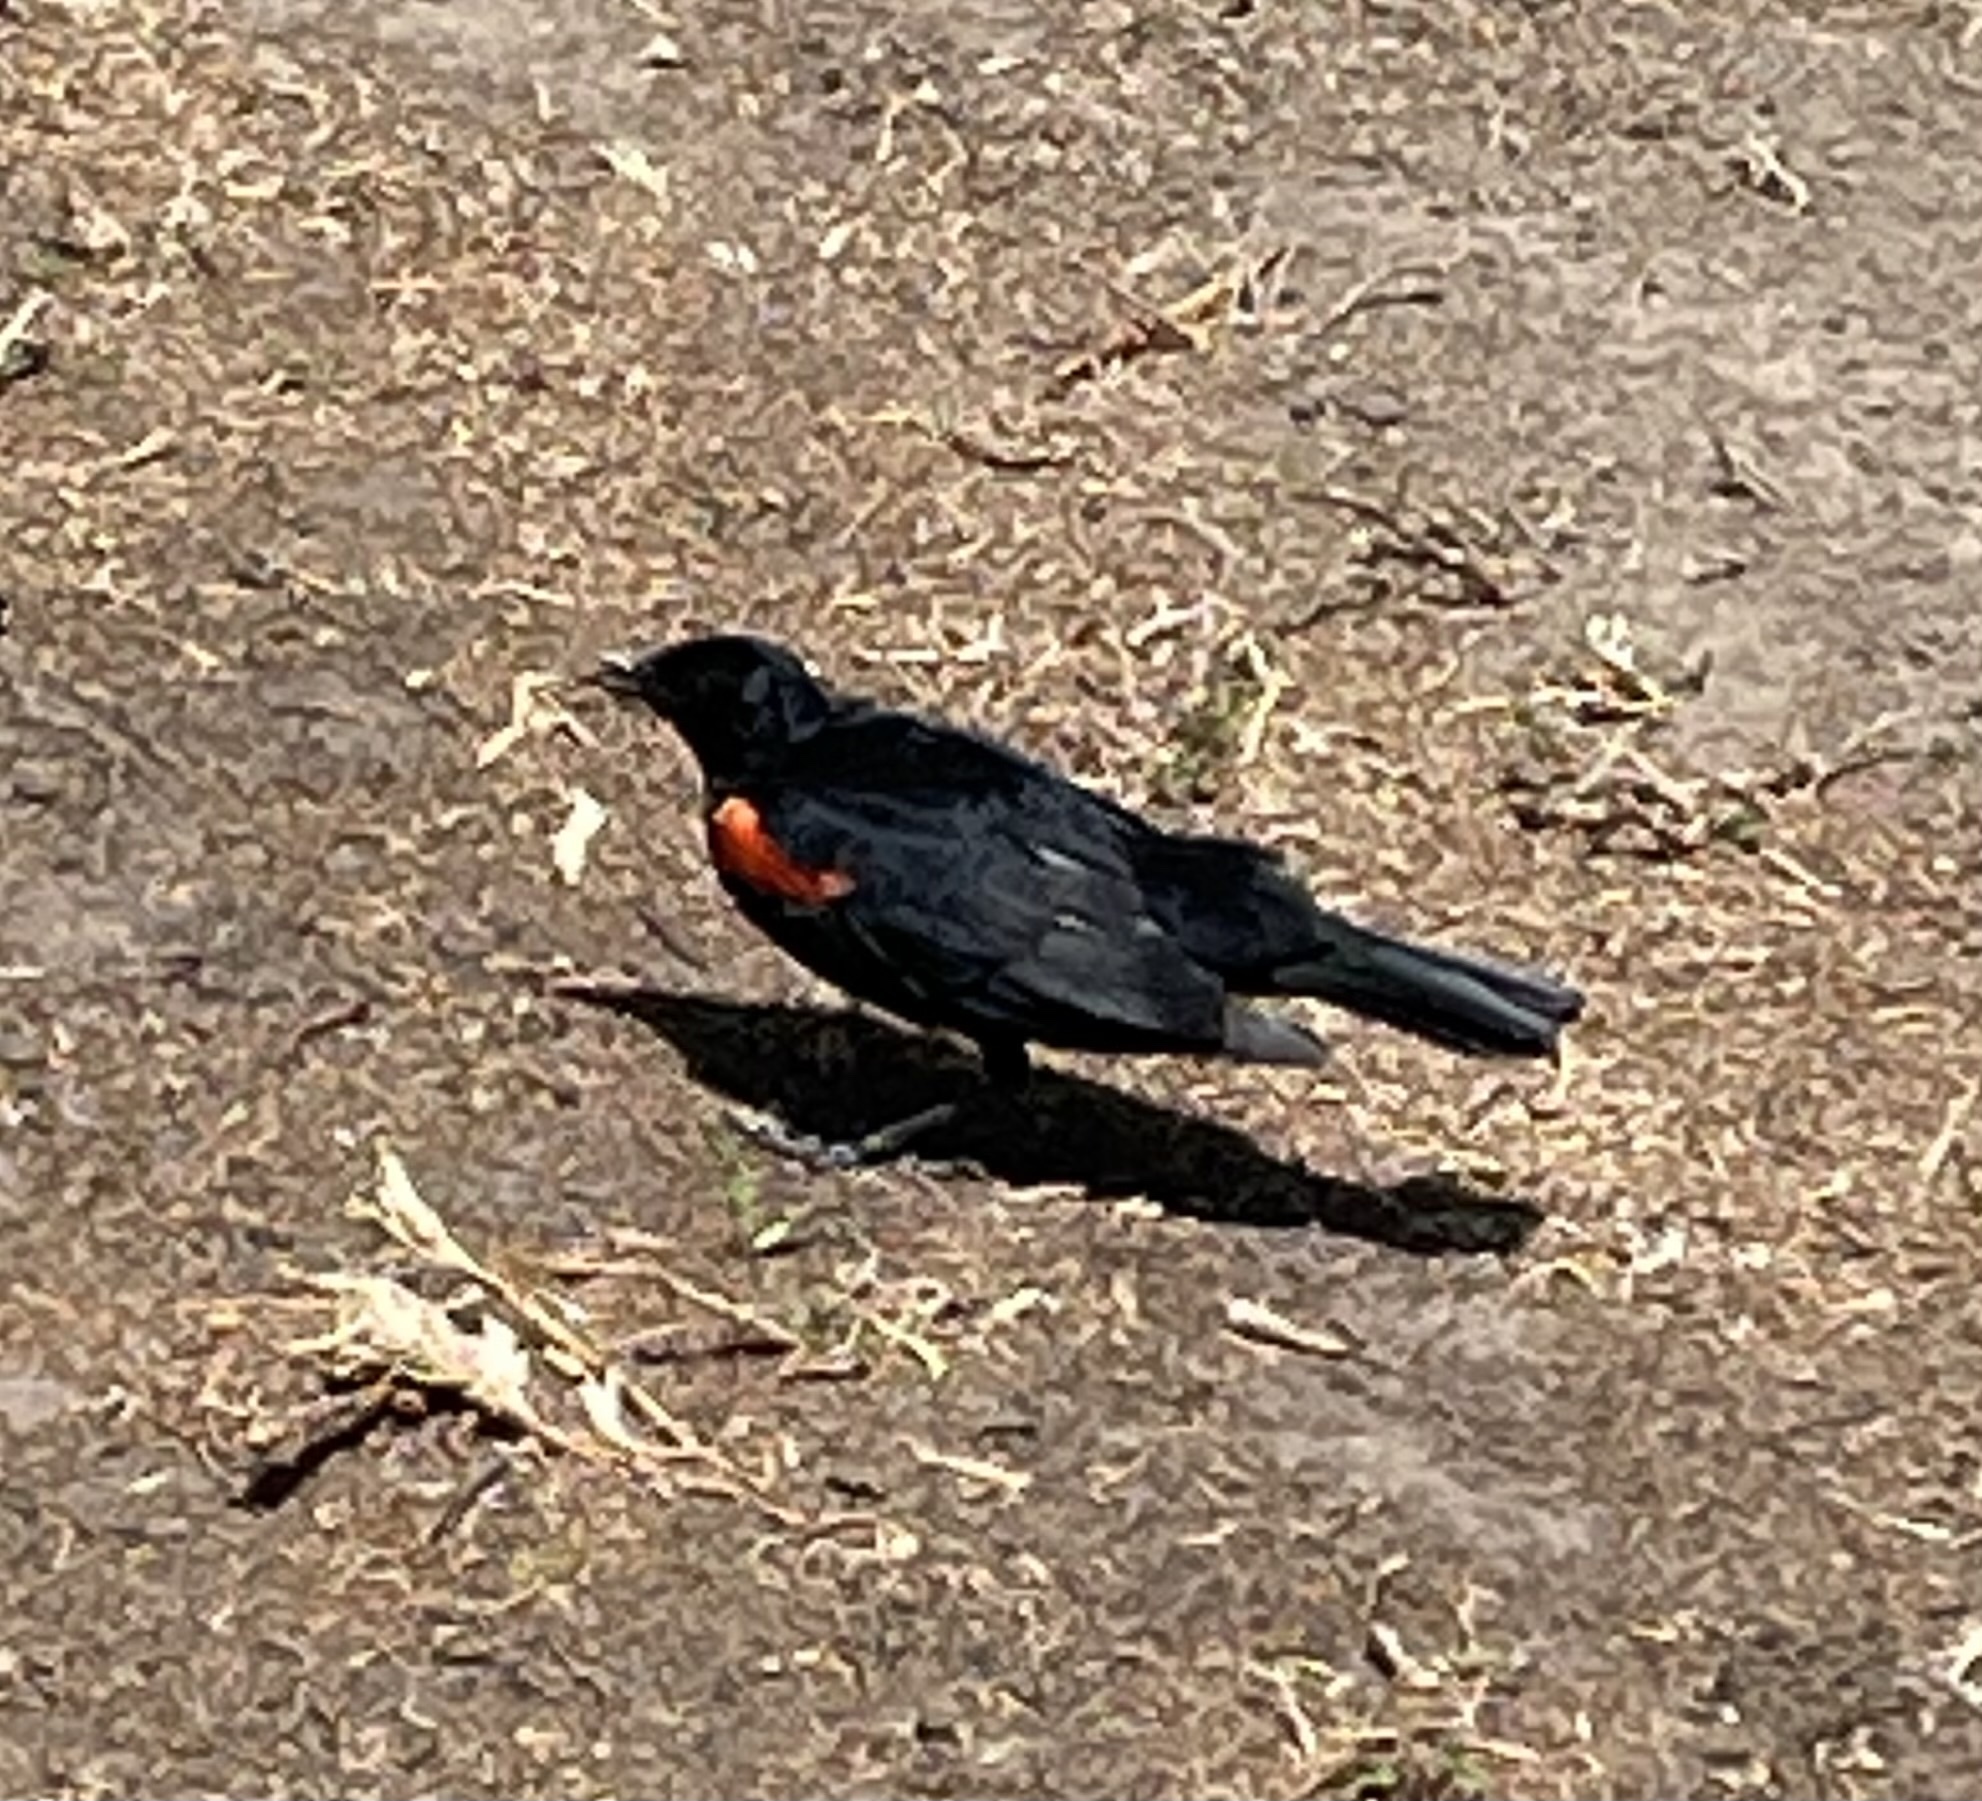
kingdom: Animalia
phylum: Chordata
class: Aves
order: Passeriformes
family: Icteridae
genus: Agelaius
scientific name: Agelaius phoeniceus
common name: Red-winged blackbird
